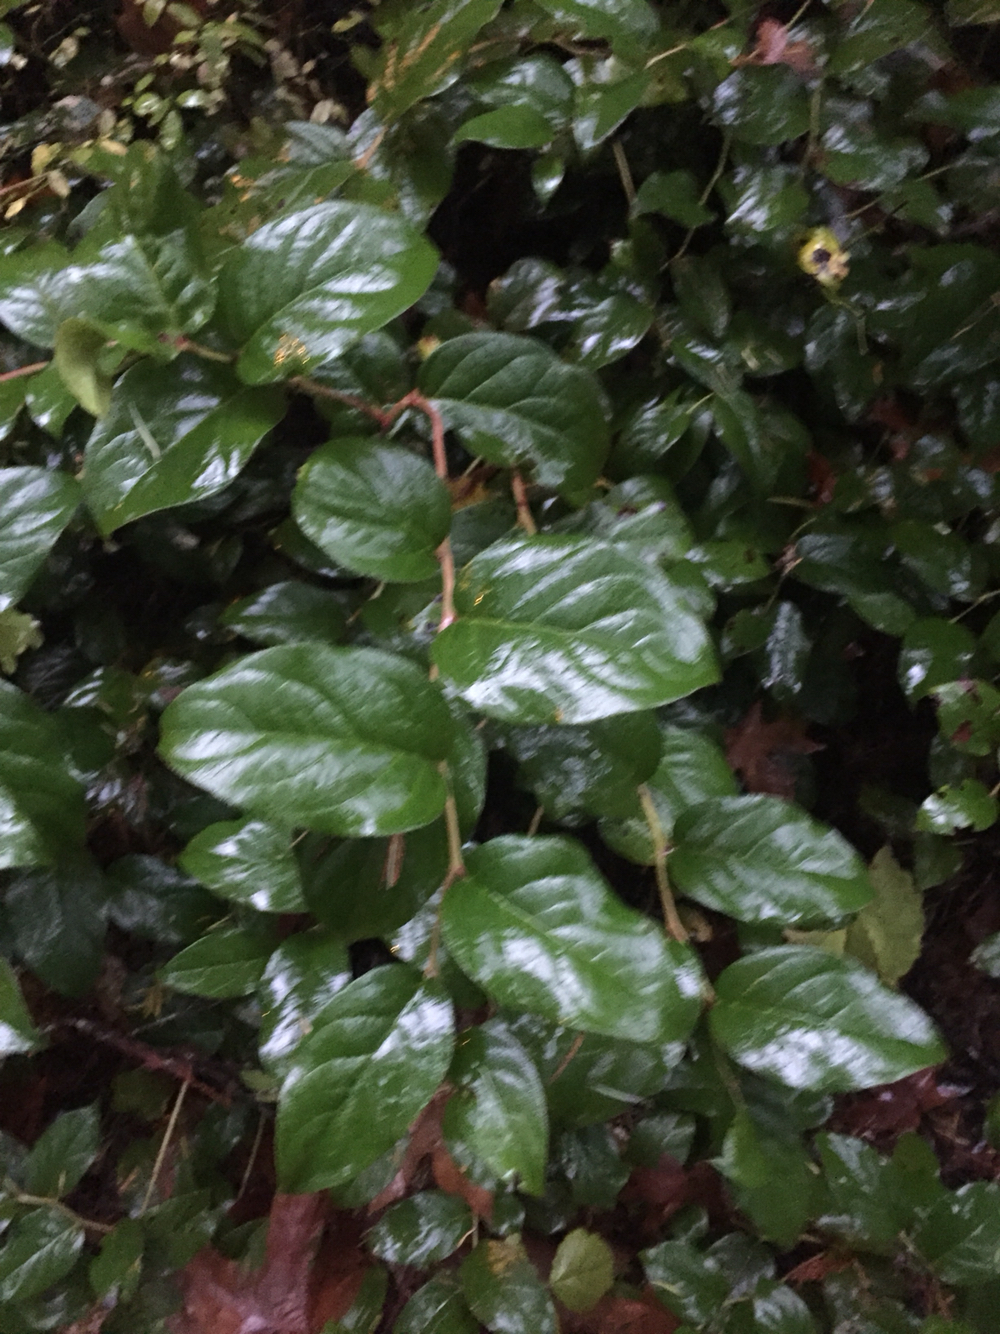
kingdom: Plantae
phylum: Tracheophyta
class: Magnoliopsida
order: Ericales
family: Ericaceae
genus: Gaultheria
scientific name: Gaultheria shallon
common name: Shallon
